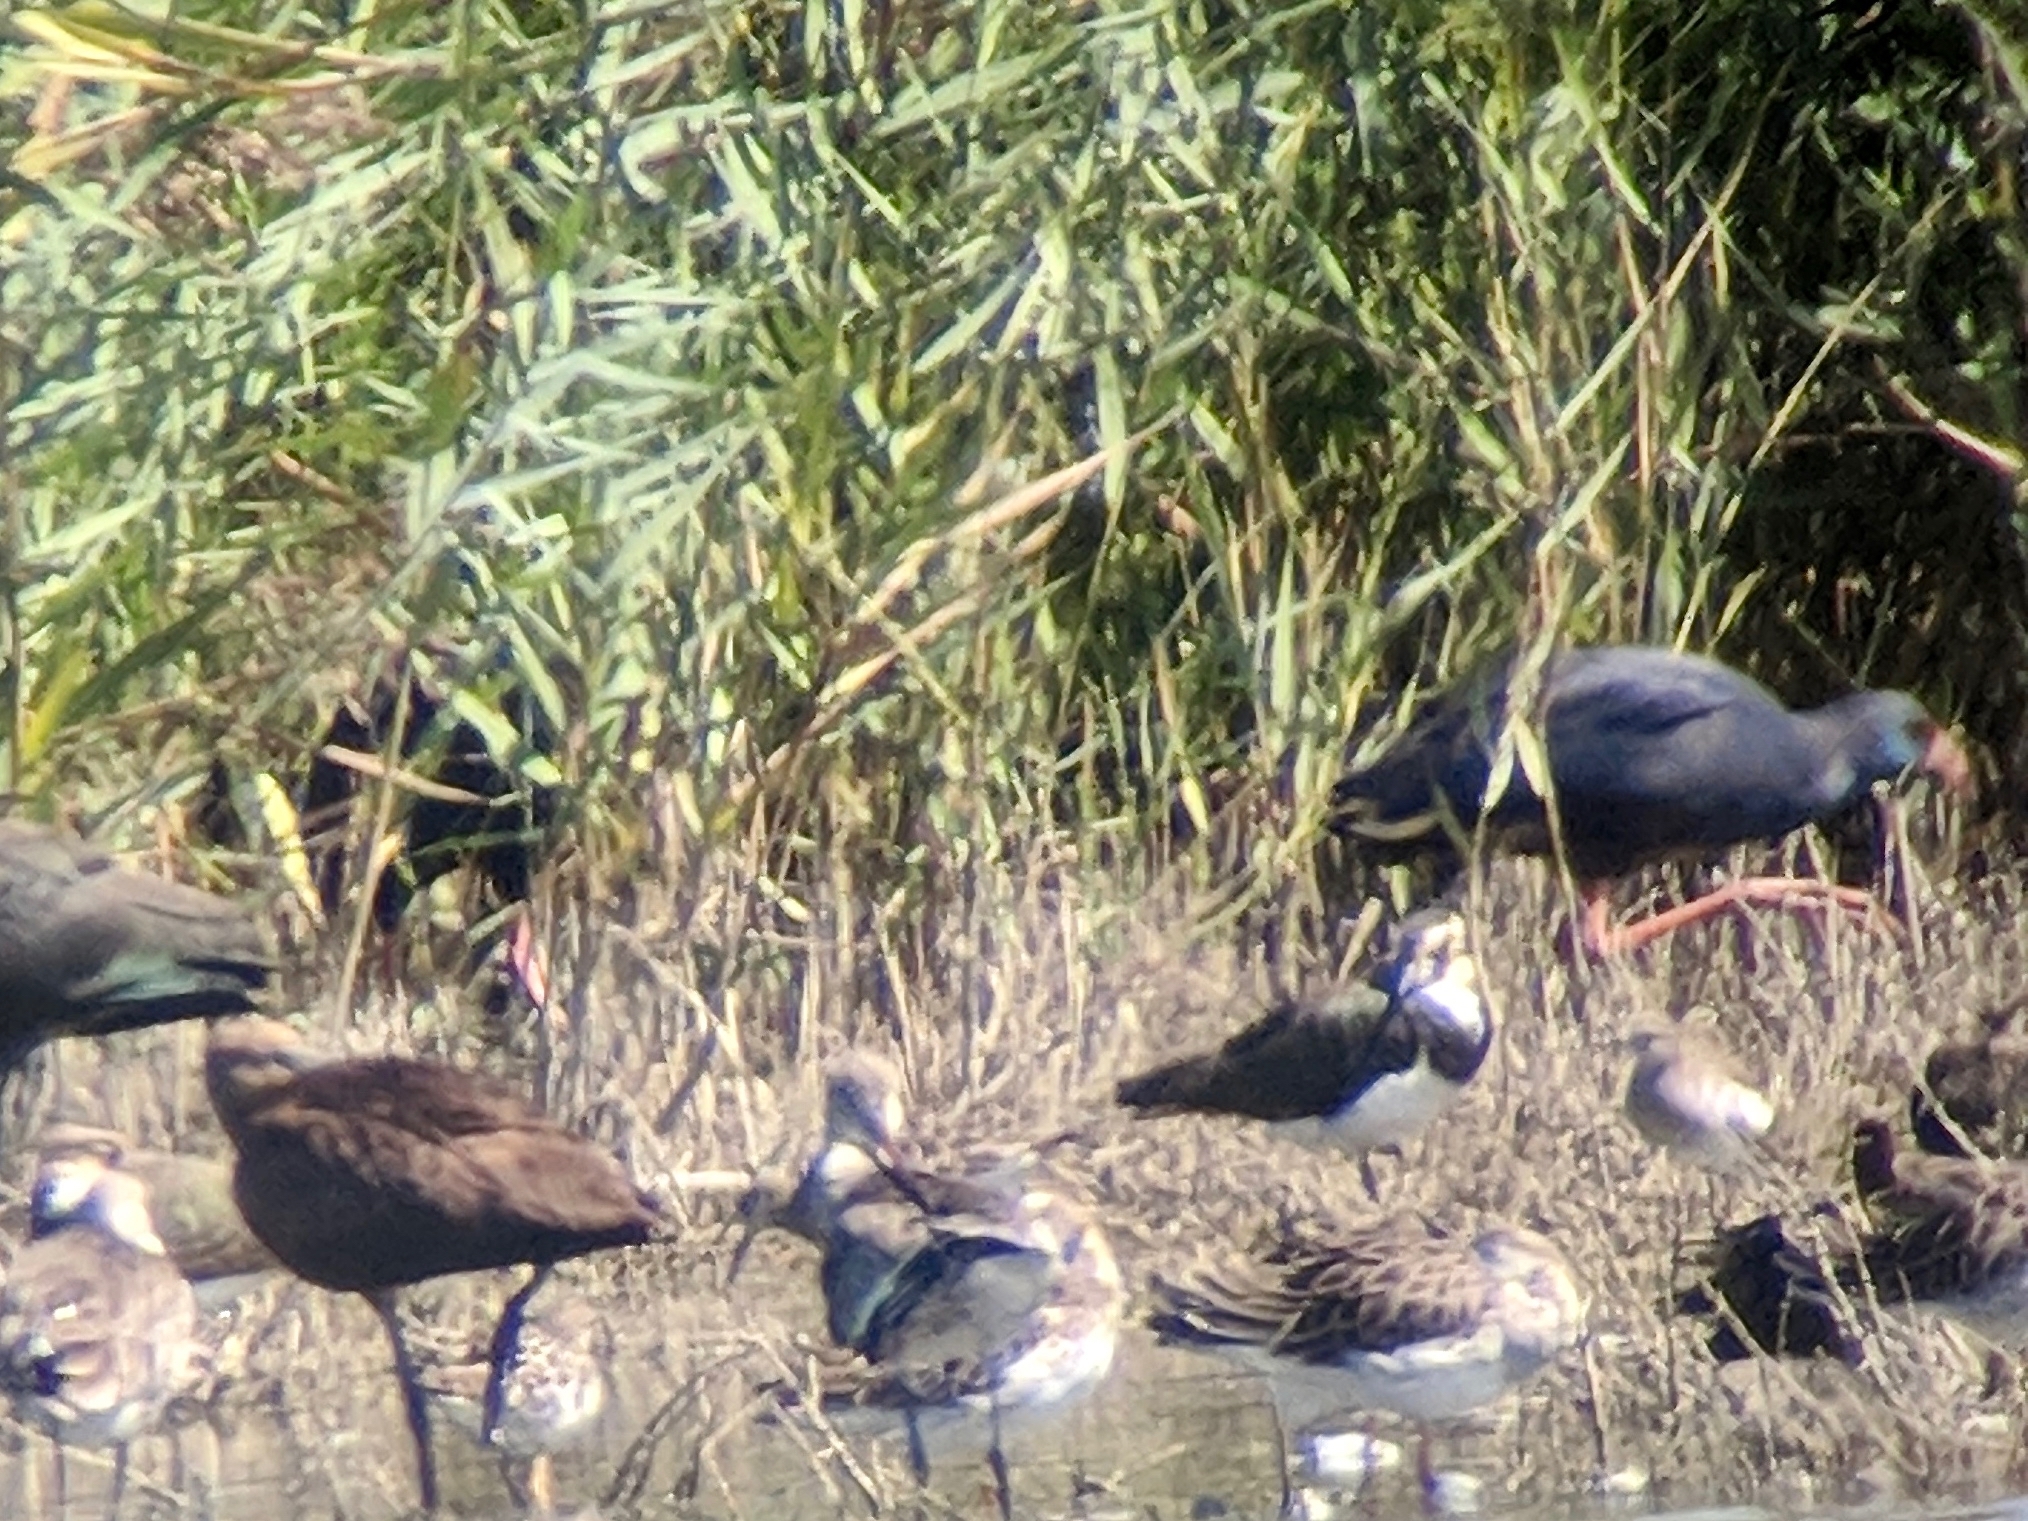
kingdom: Animalia
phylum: Chordata
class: Aves
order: Gruiformes
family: Rallidae
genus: Porphyrio
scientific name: Porphyrio porphyrio
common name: Purple swamphen
